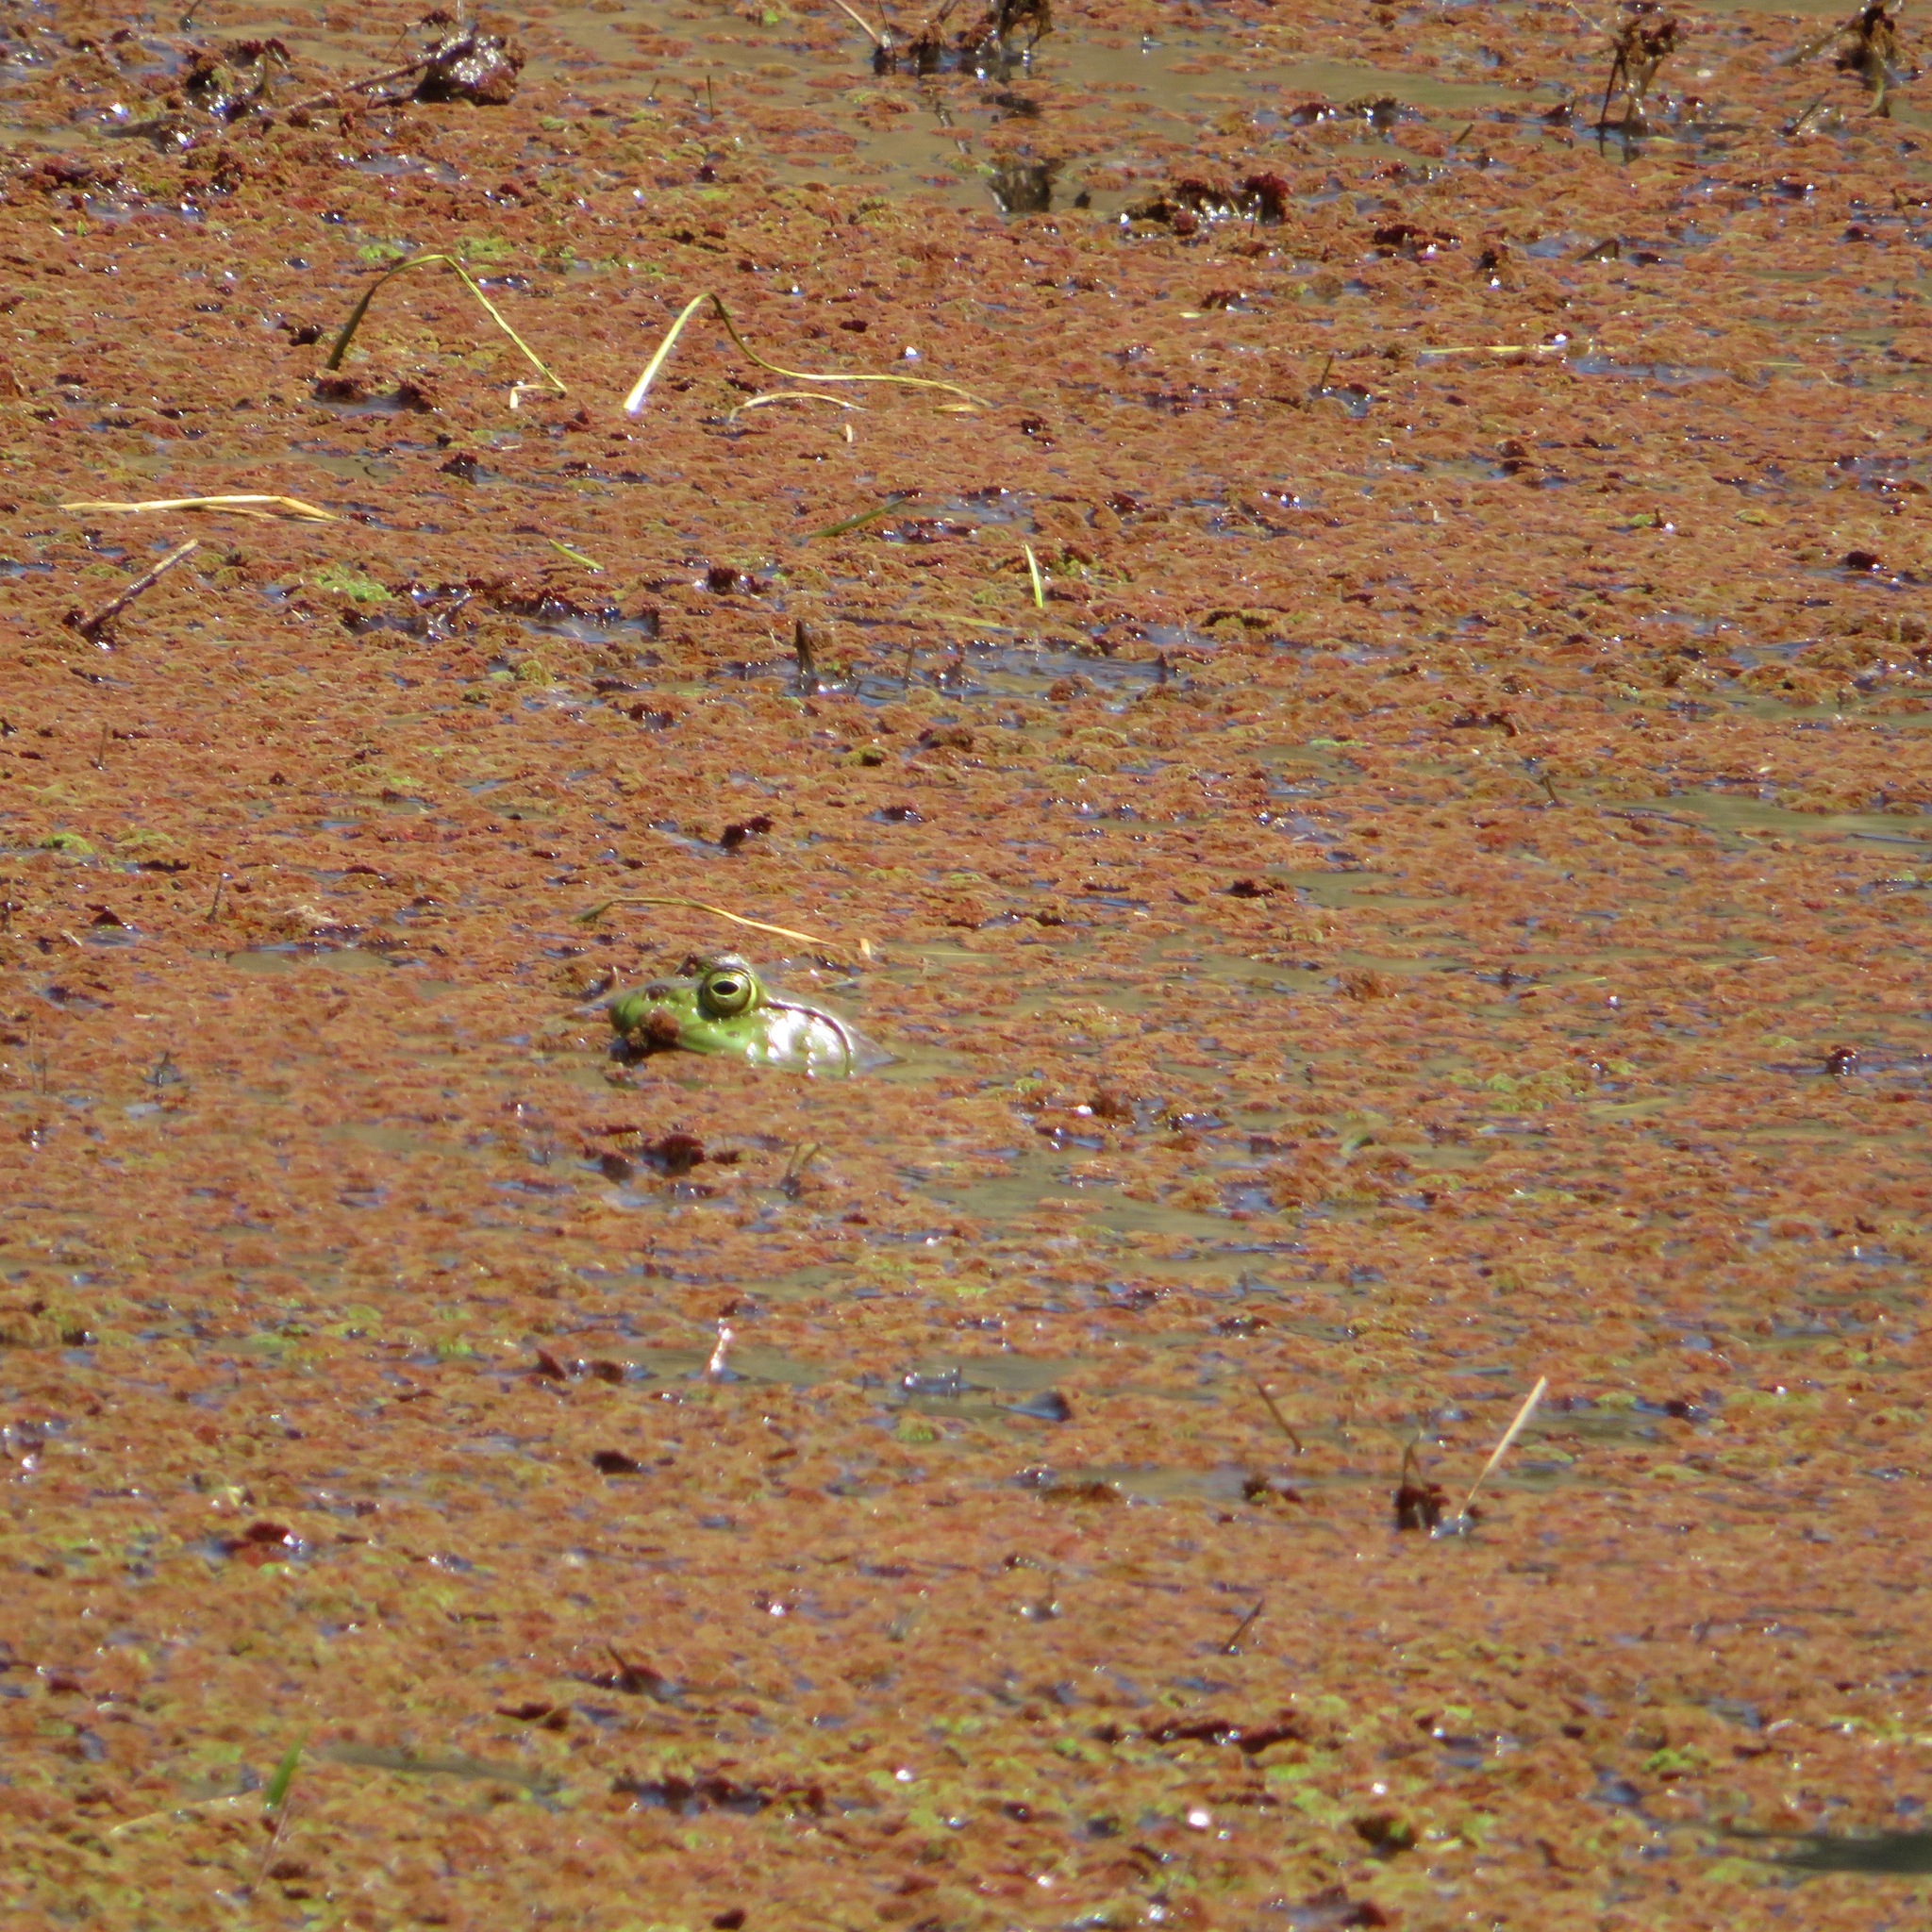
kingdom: Animalia
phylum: Chordata
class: Amphibia
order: Anura
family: Ranidae
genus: Lithobates
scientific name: Lithobates catesbeianus
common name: American bullfrog
